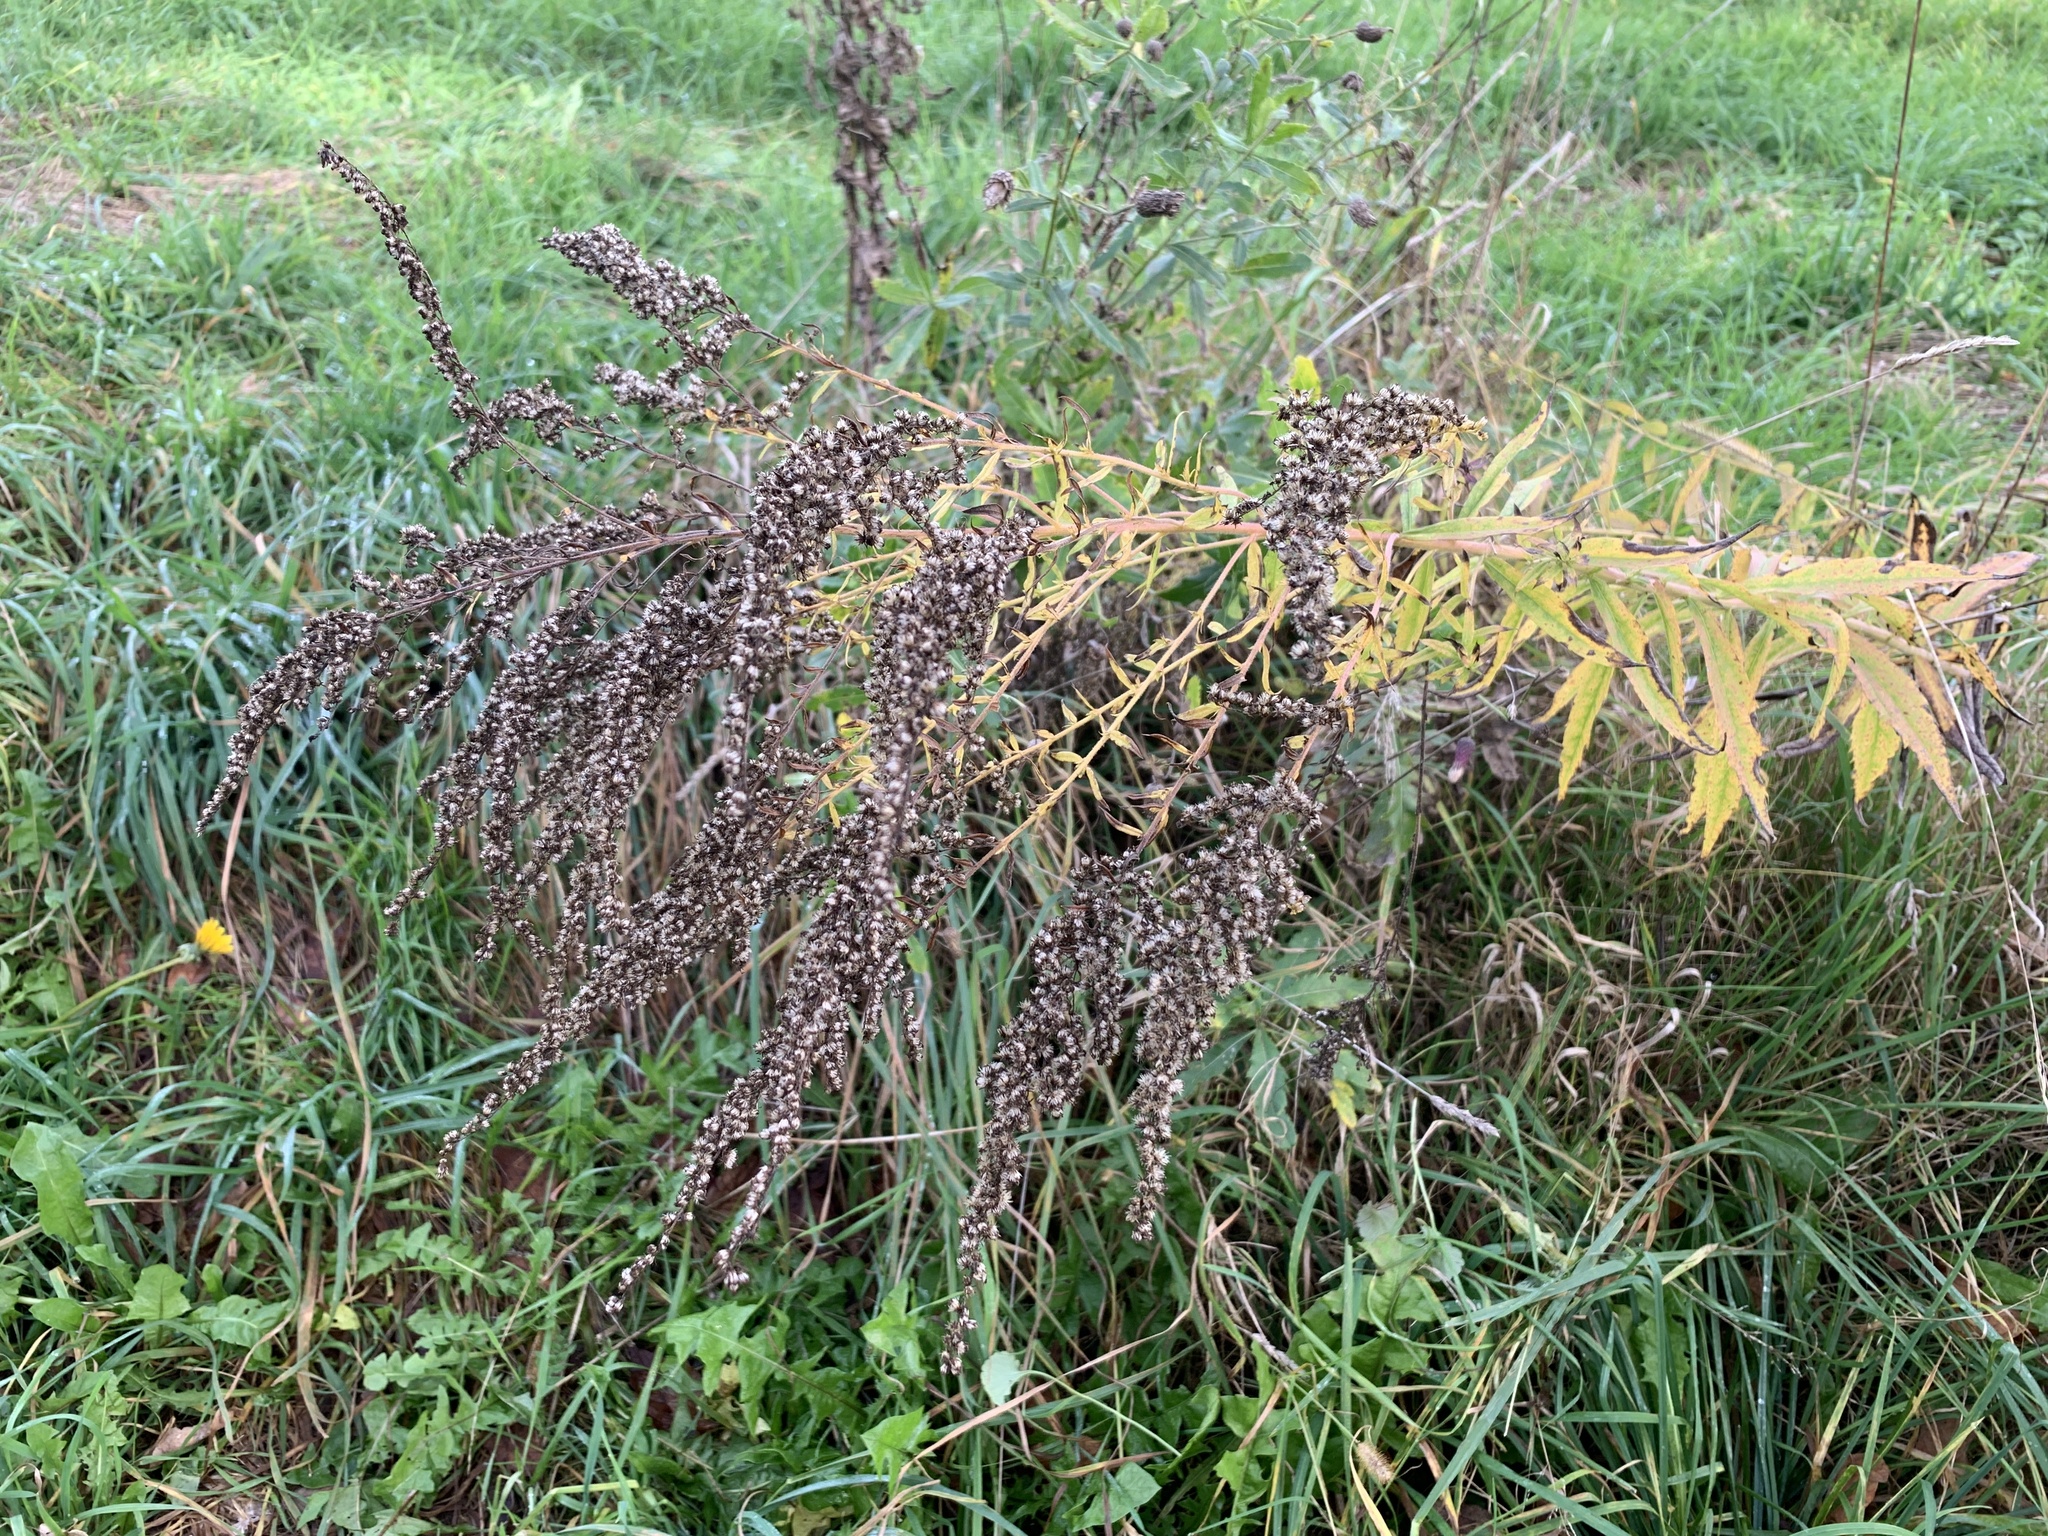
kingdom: Plantae
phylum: Tracheophyta
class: Magnoliopsida
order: Asterales
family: Asteraceae
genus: Solidago
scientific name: Solidago canadensis
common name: Canada goldenrod
